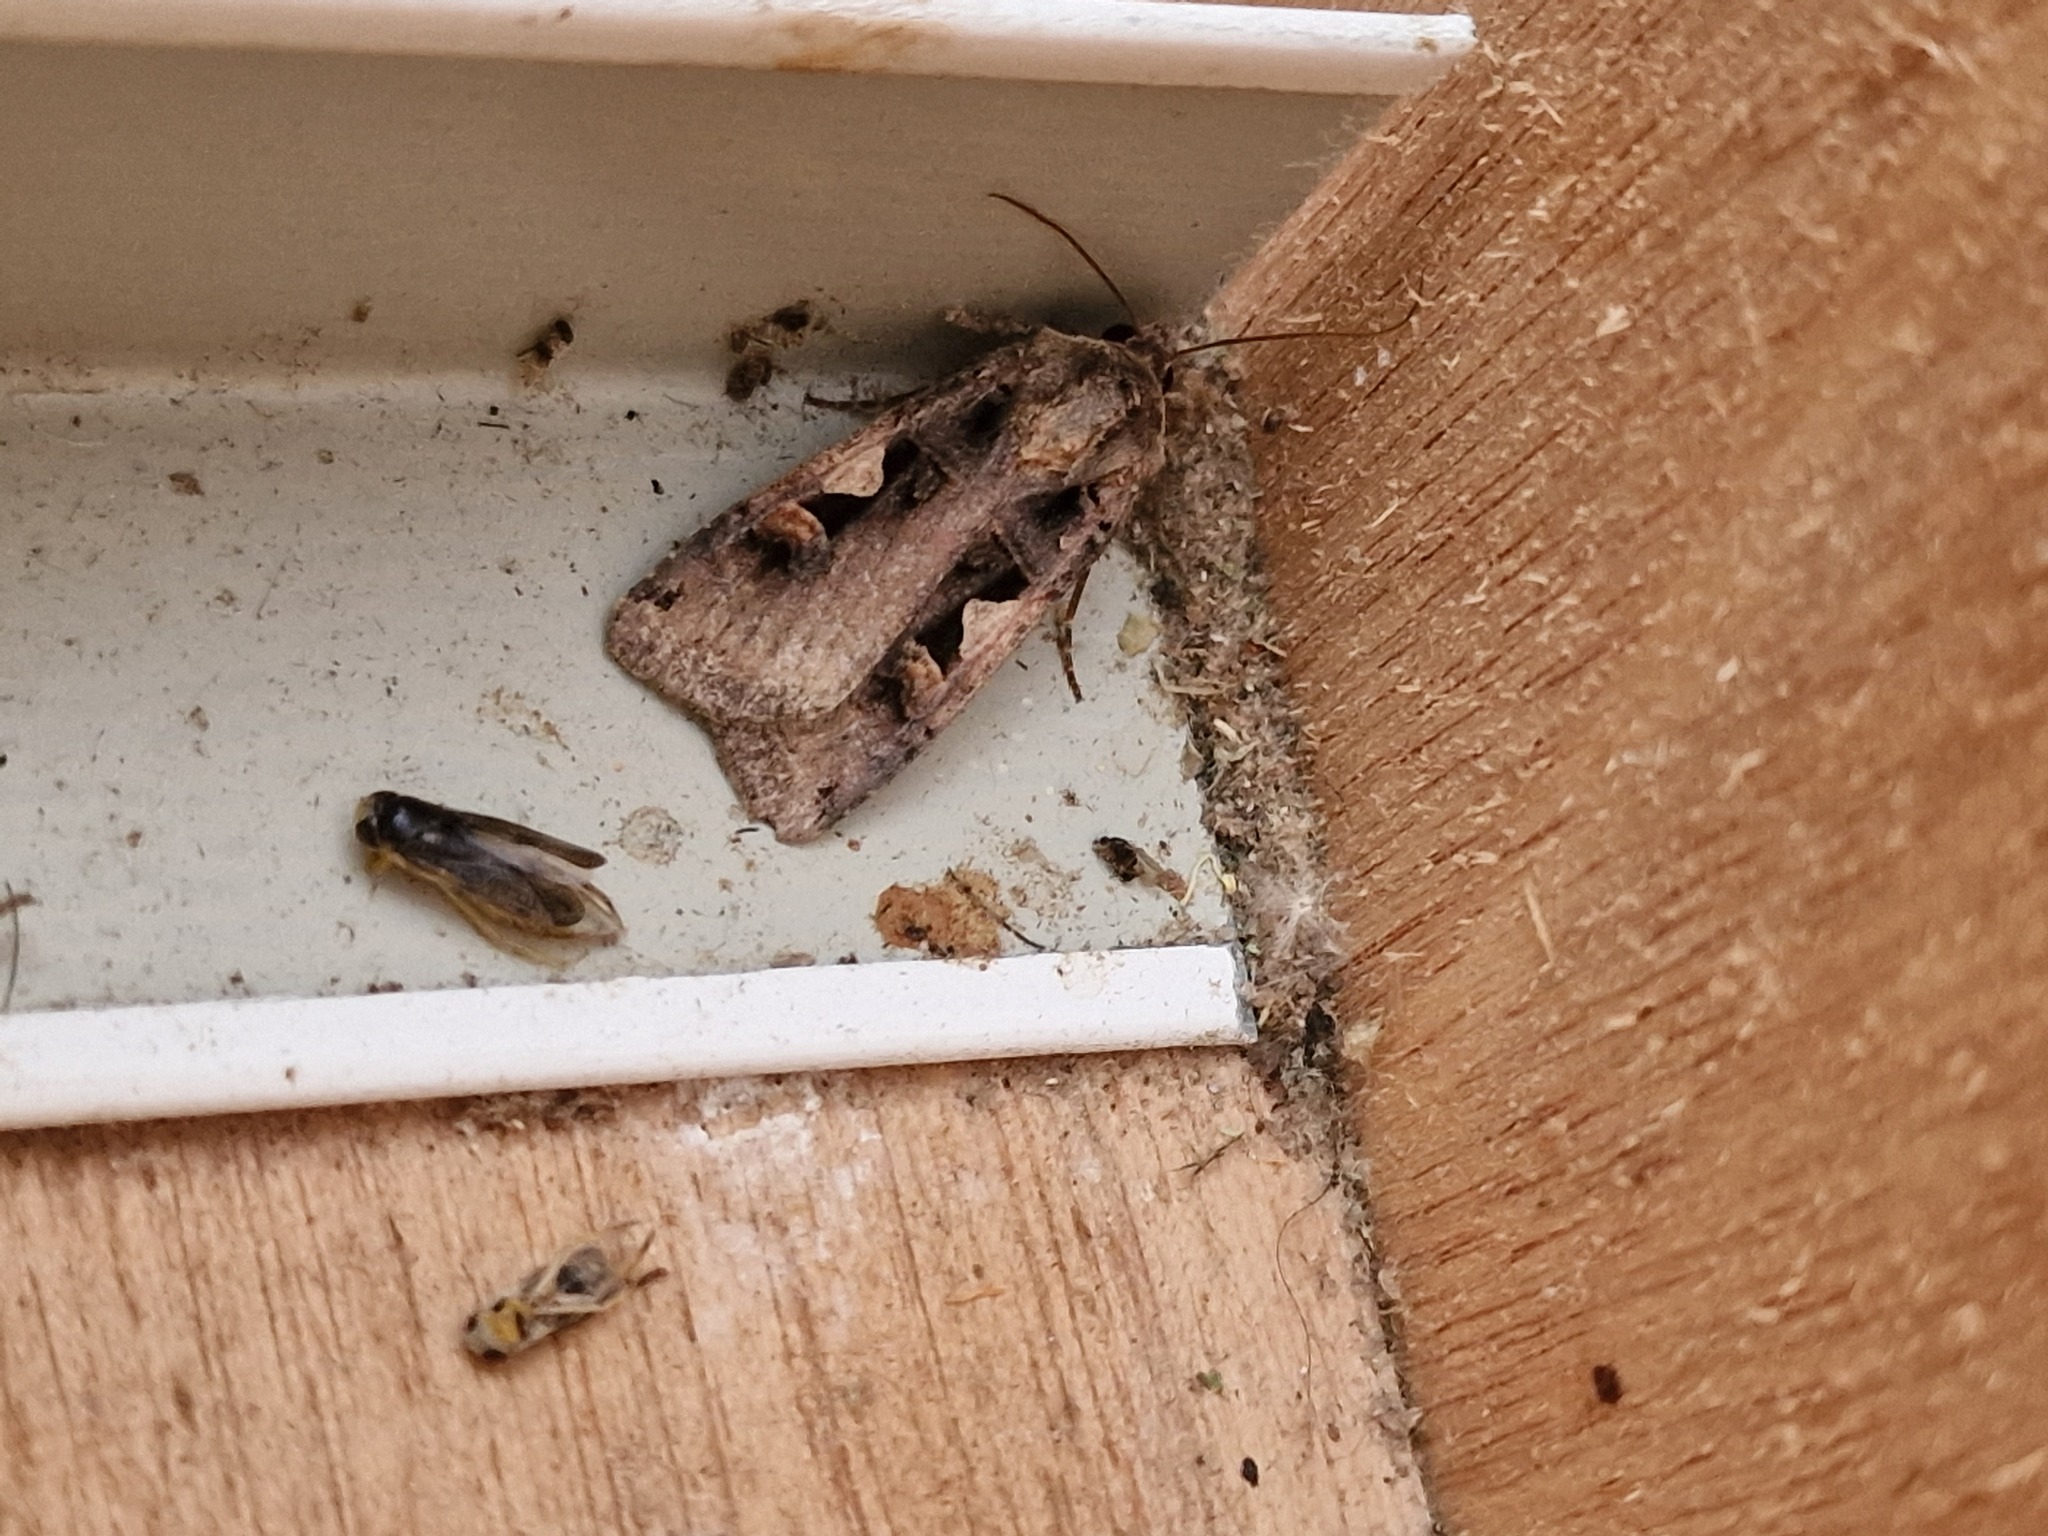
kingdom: Animalia
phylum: Arthropoda
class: Insecta
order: Lepidoptera
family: Noctuidae
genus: Xestia
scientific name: Xestia c-nigrum
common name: Setaceous hebrew character
